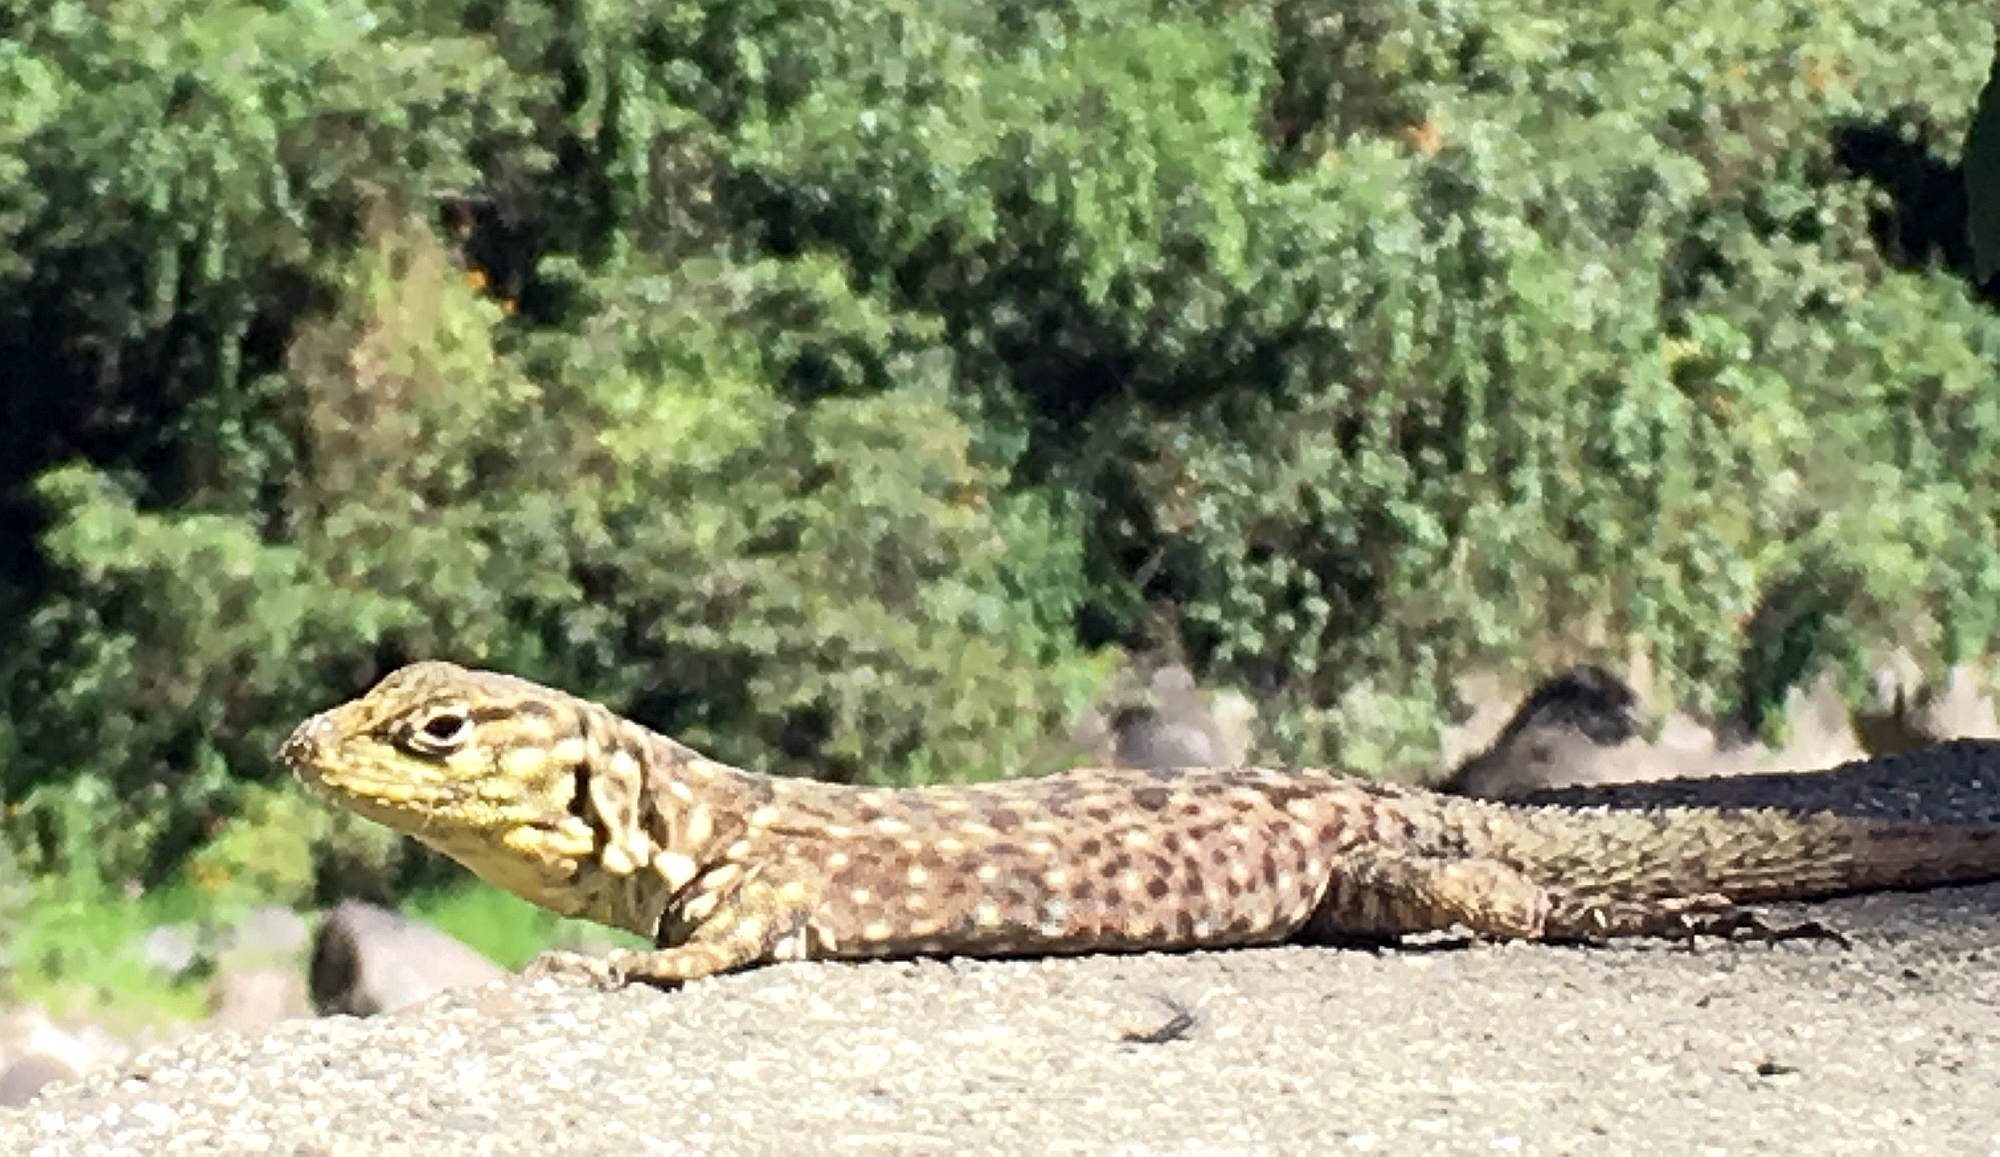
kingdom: Animalia
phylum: Chordata
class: Squamata
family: Tropiduridae
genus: Stenocercus
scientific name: Stenocercus crassicaudatus
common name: Spiny whorltail iguana
